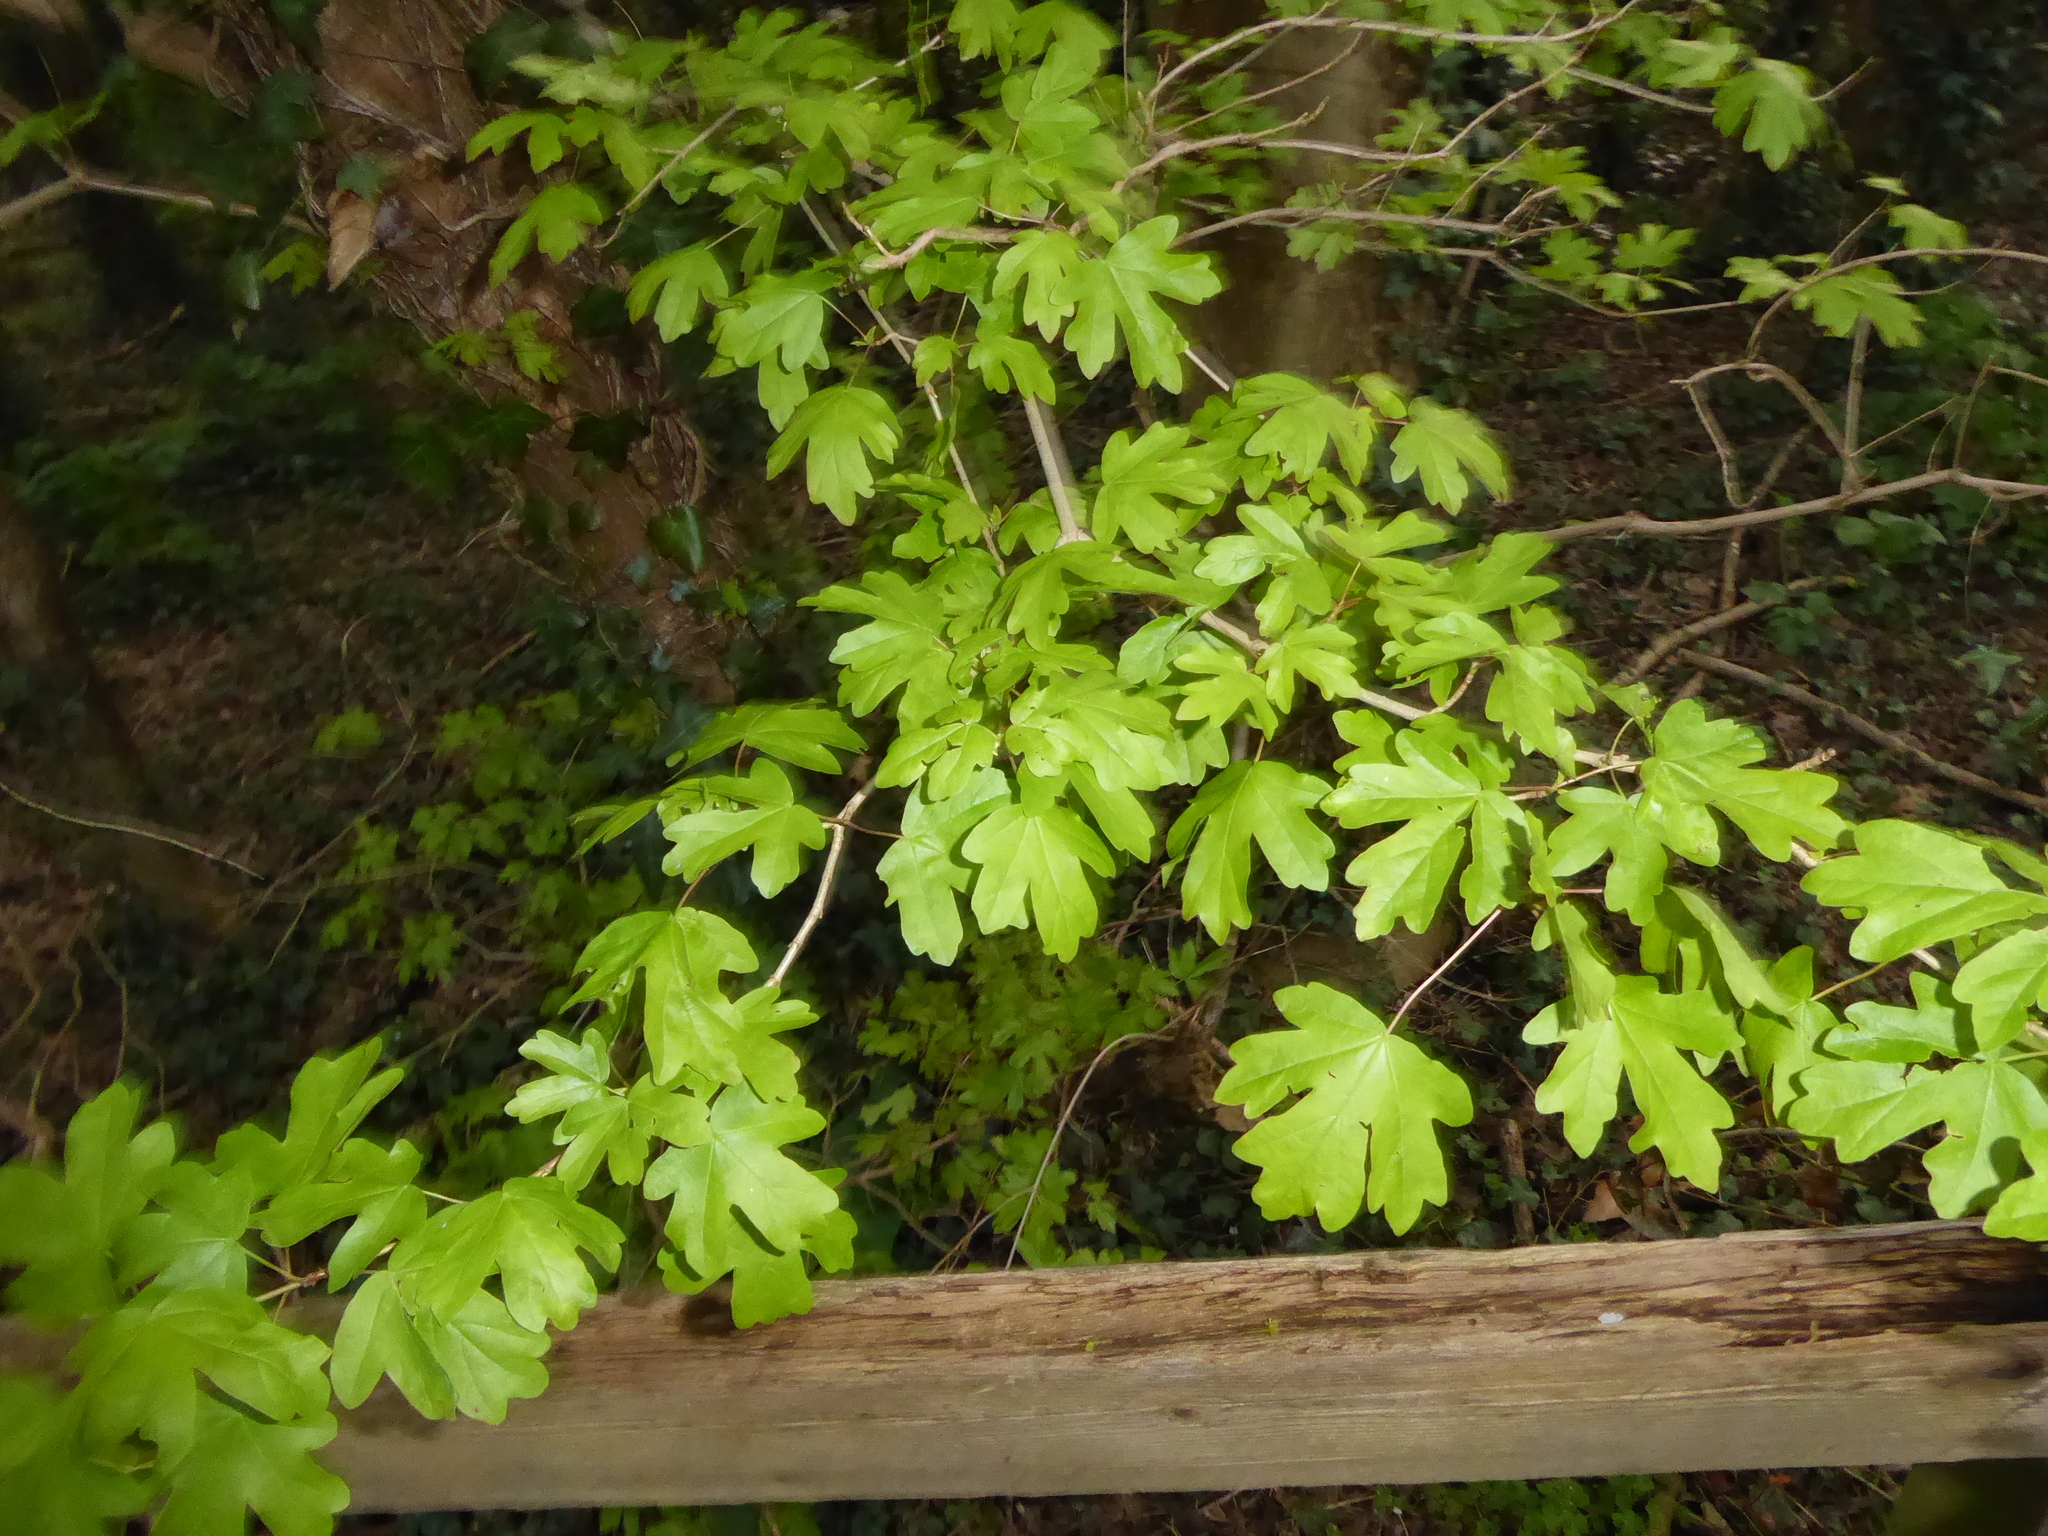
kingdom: Plantae
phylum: Tracheophyta
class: Magnoliopsida
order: Sapindales
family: Sapindaceae
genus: Acer
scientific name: Acer campestre
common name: Field maple
